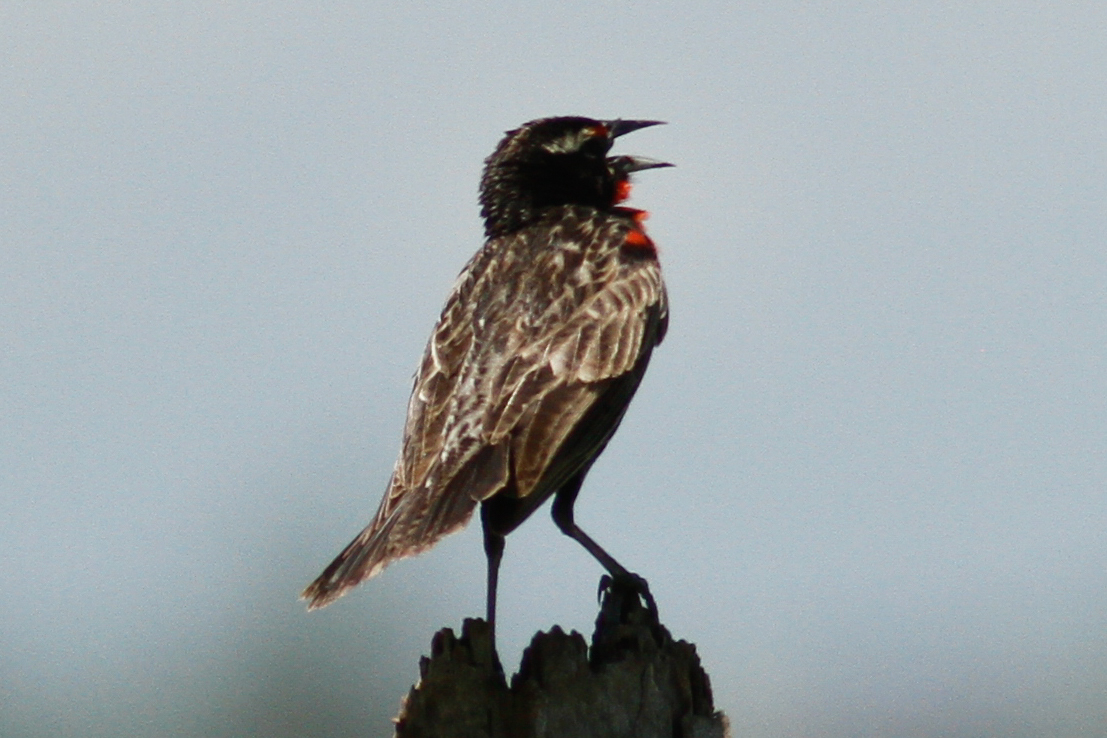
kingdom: Animalia
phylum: Chordata
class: Aves
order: Passeriformes
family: Icteridae
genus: Sturnella
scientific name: Sturnella bellicosa
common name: Peruvian meadowlark
